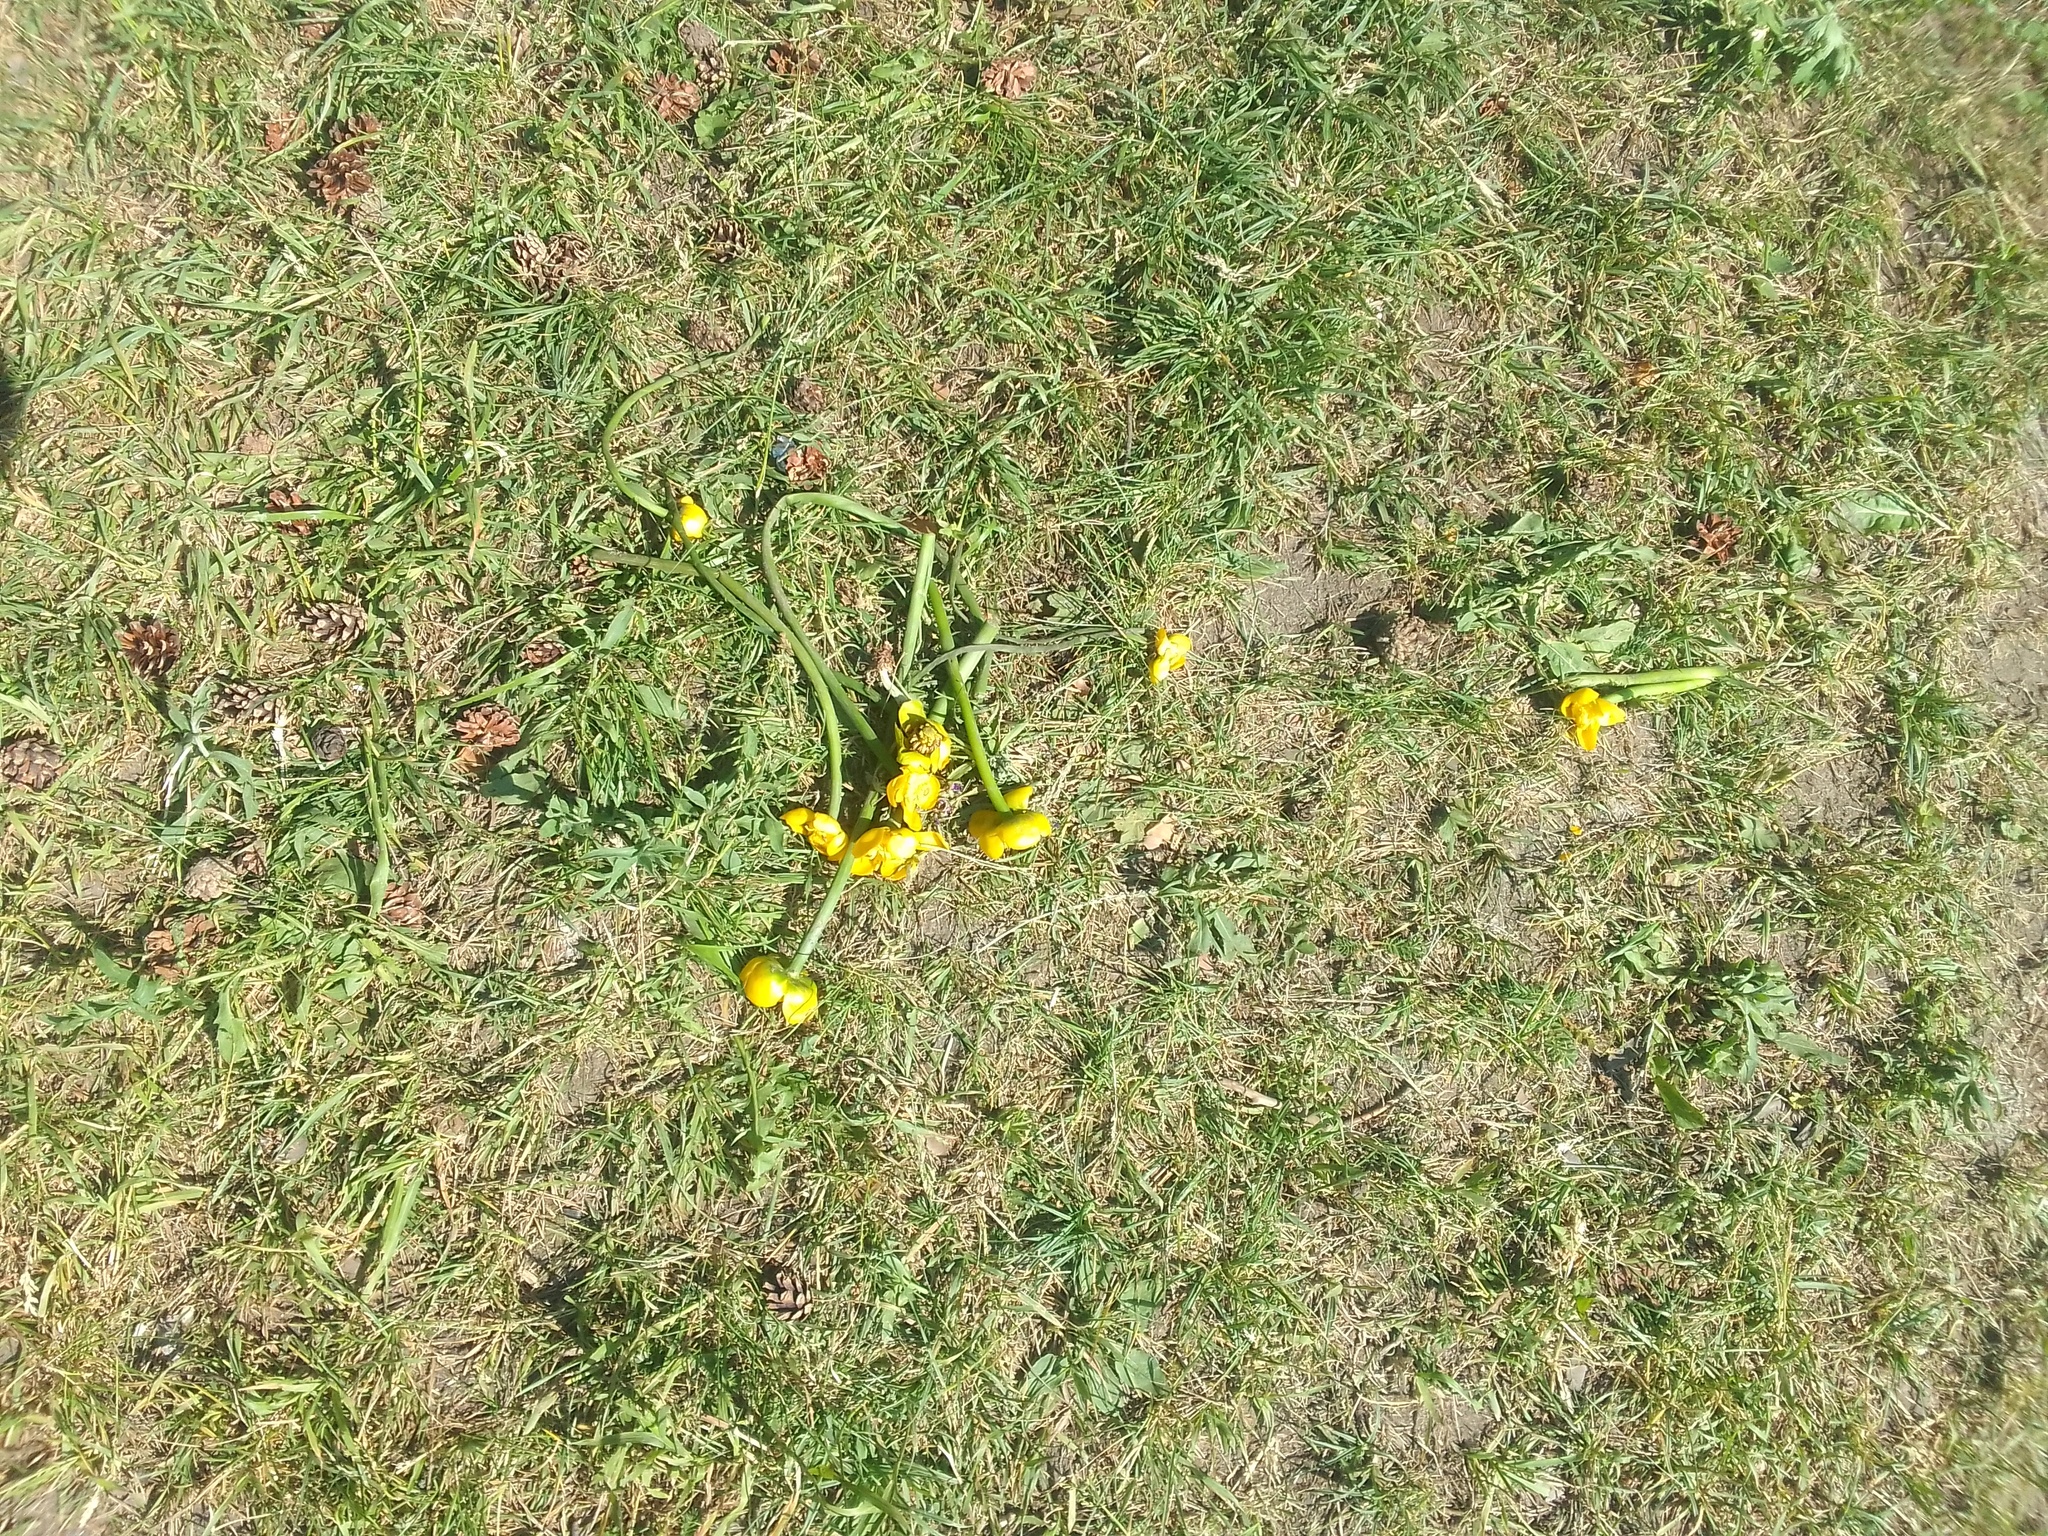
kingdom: Plantae
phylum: Tracheophyta
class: Magnoliopsida
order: Nymphaeales
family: Nymphaeaceae
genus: Nuphar
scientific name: Nuphar lutea
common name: Yellow water-lily
